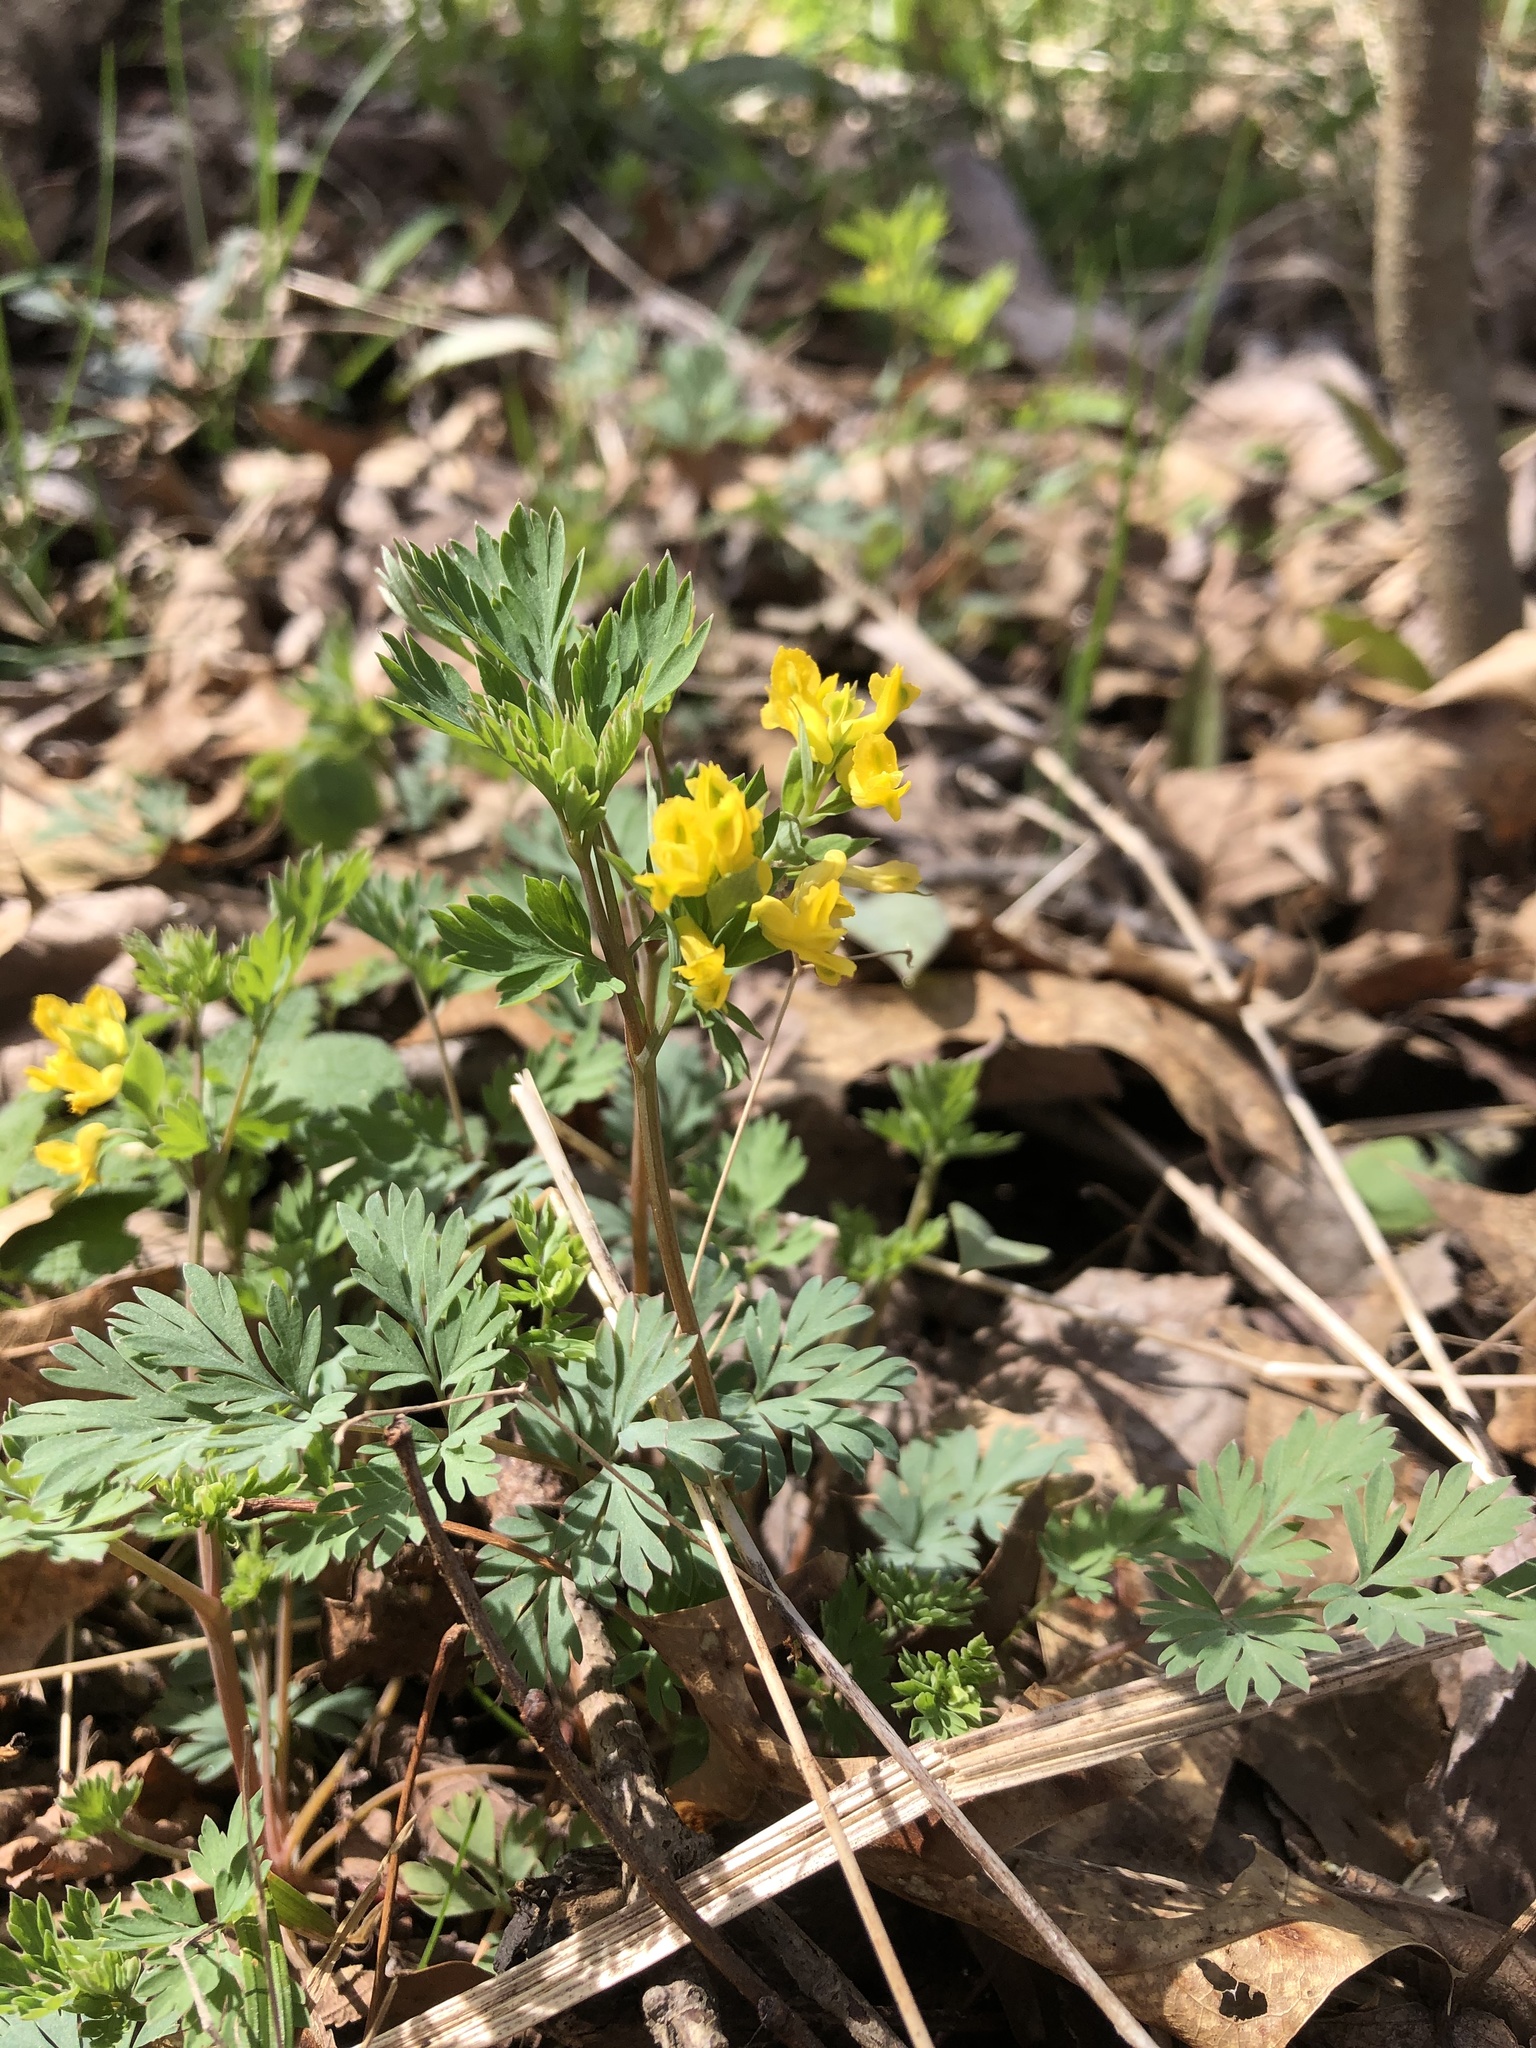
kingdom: Plantae
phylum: Tracheophyta
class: Magnoliopsida
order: Ranunculales
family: Papaveraceae
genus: Corydalis
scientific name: Corydalis flavula
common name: Yellow corydalis
